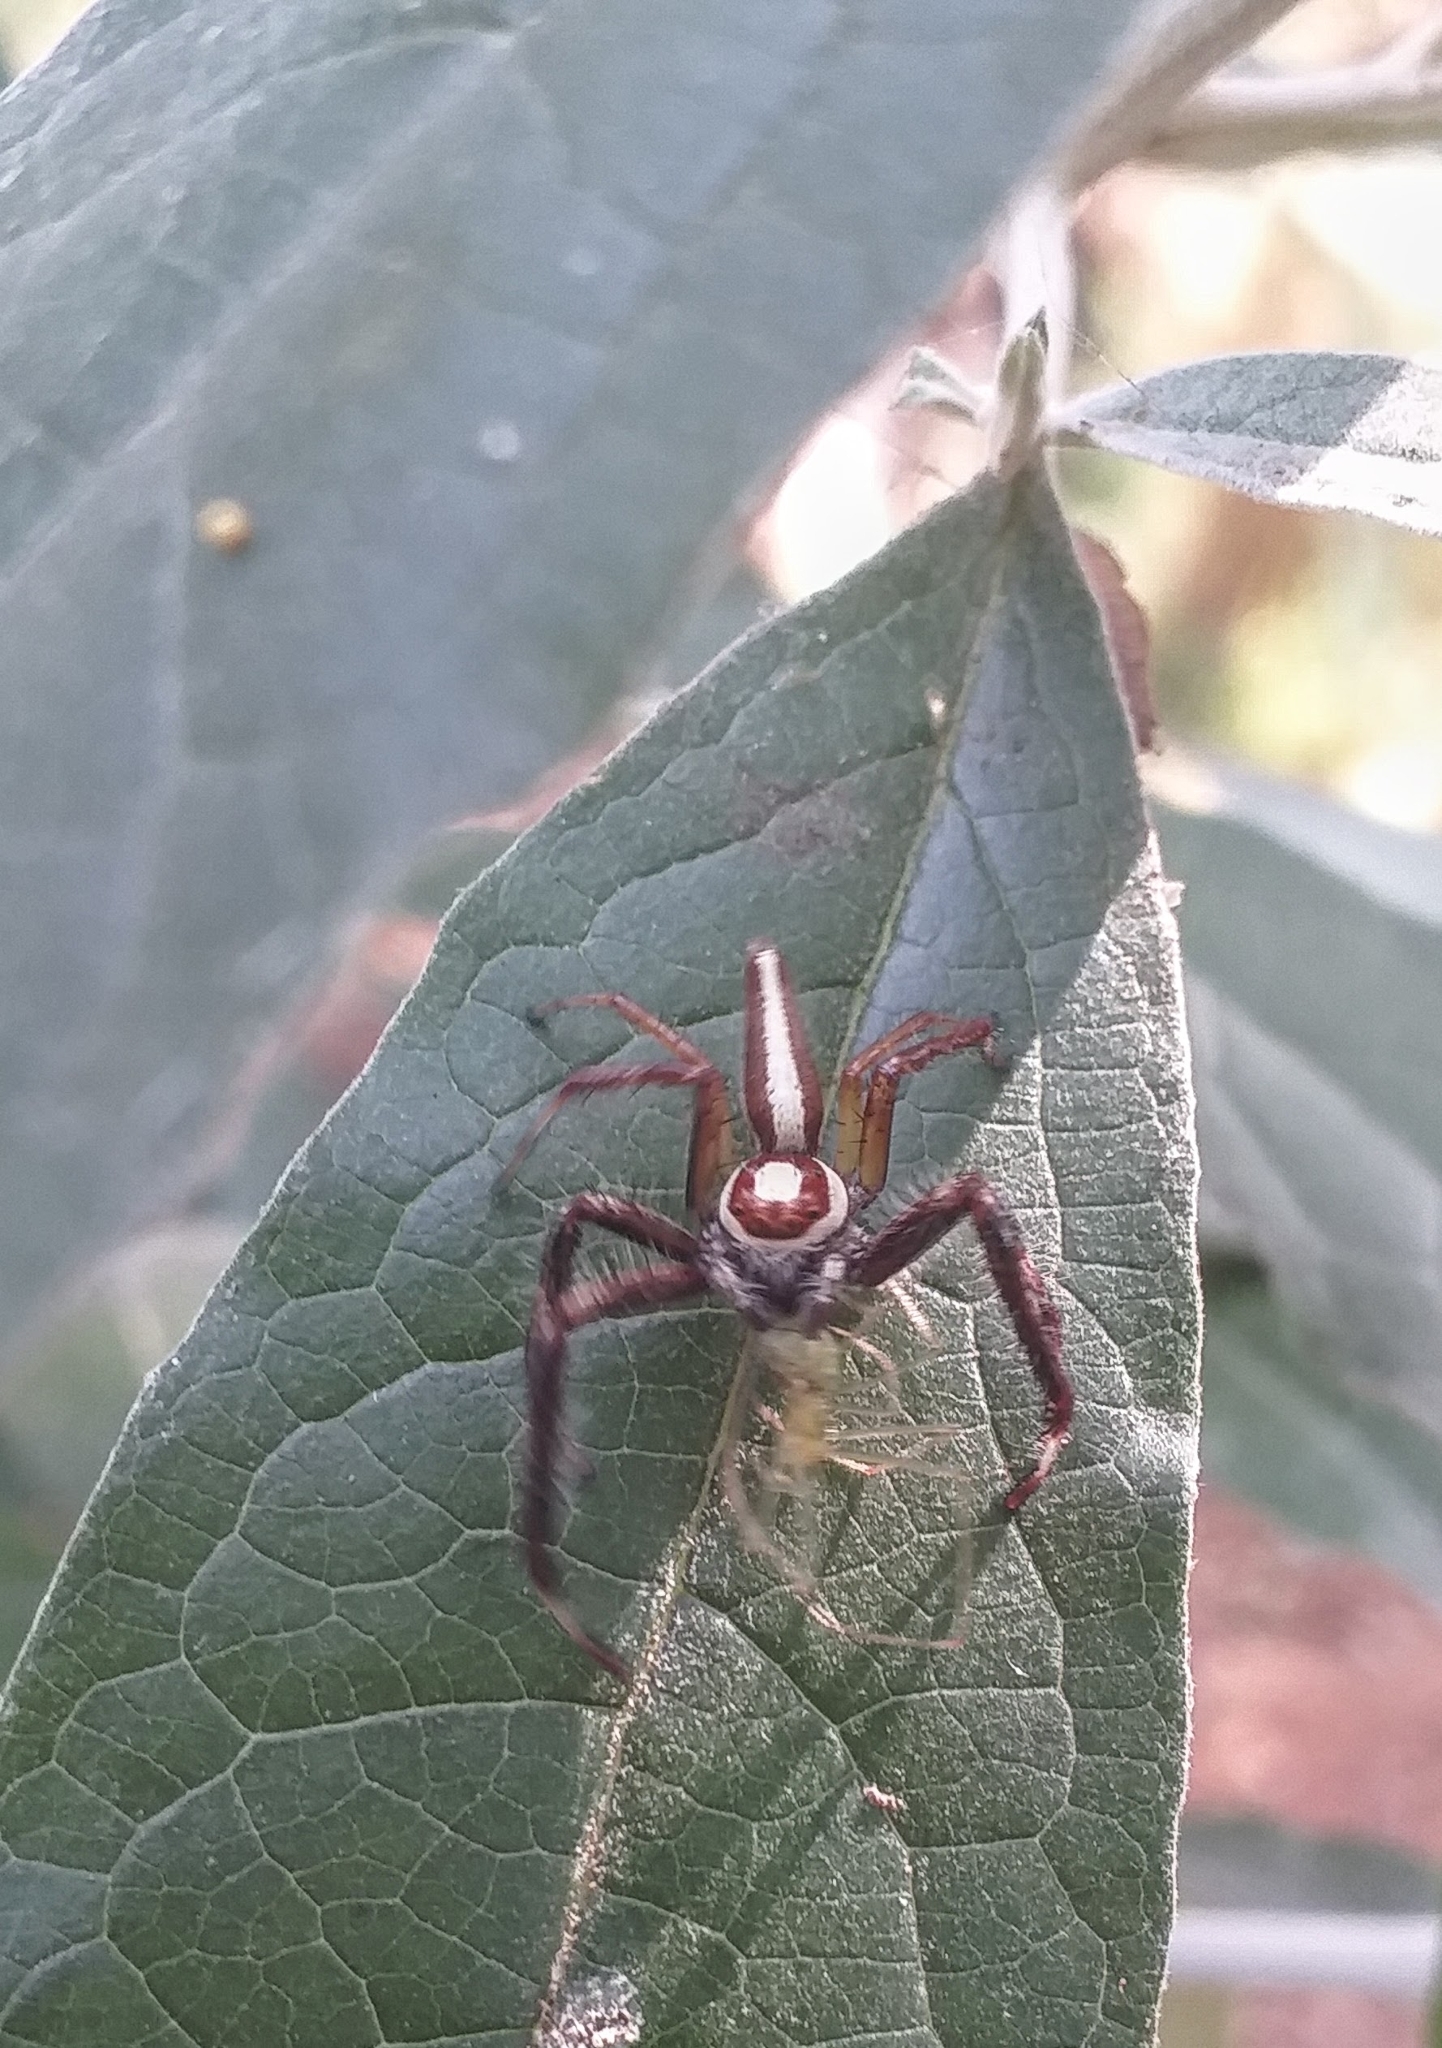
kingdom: Animalia
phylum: Arthropoda
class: Arachnida
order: Araneae
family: Salticidae
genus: Telamonia
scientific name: Telamonia dimidiata
